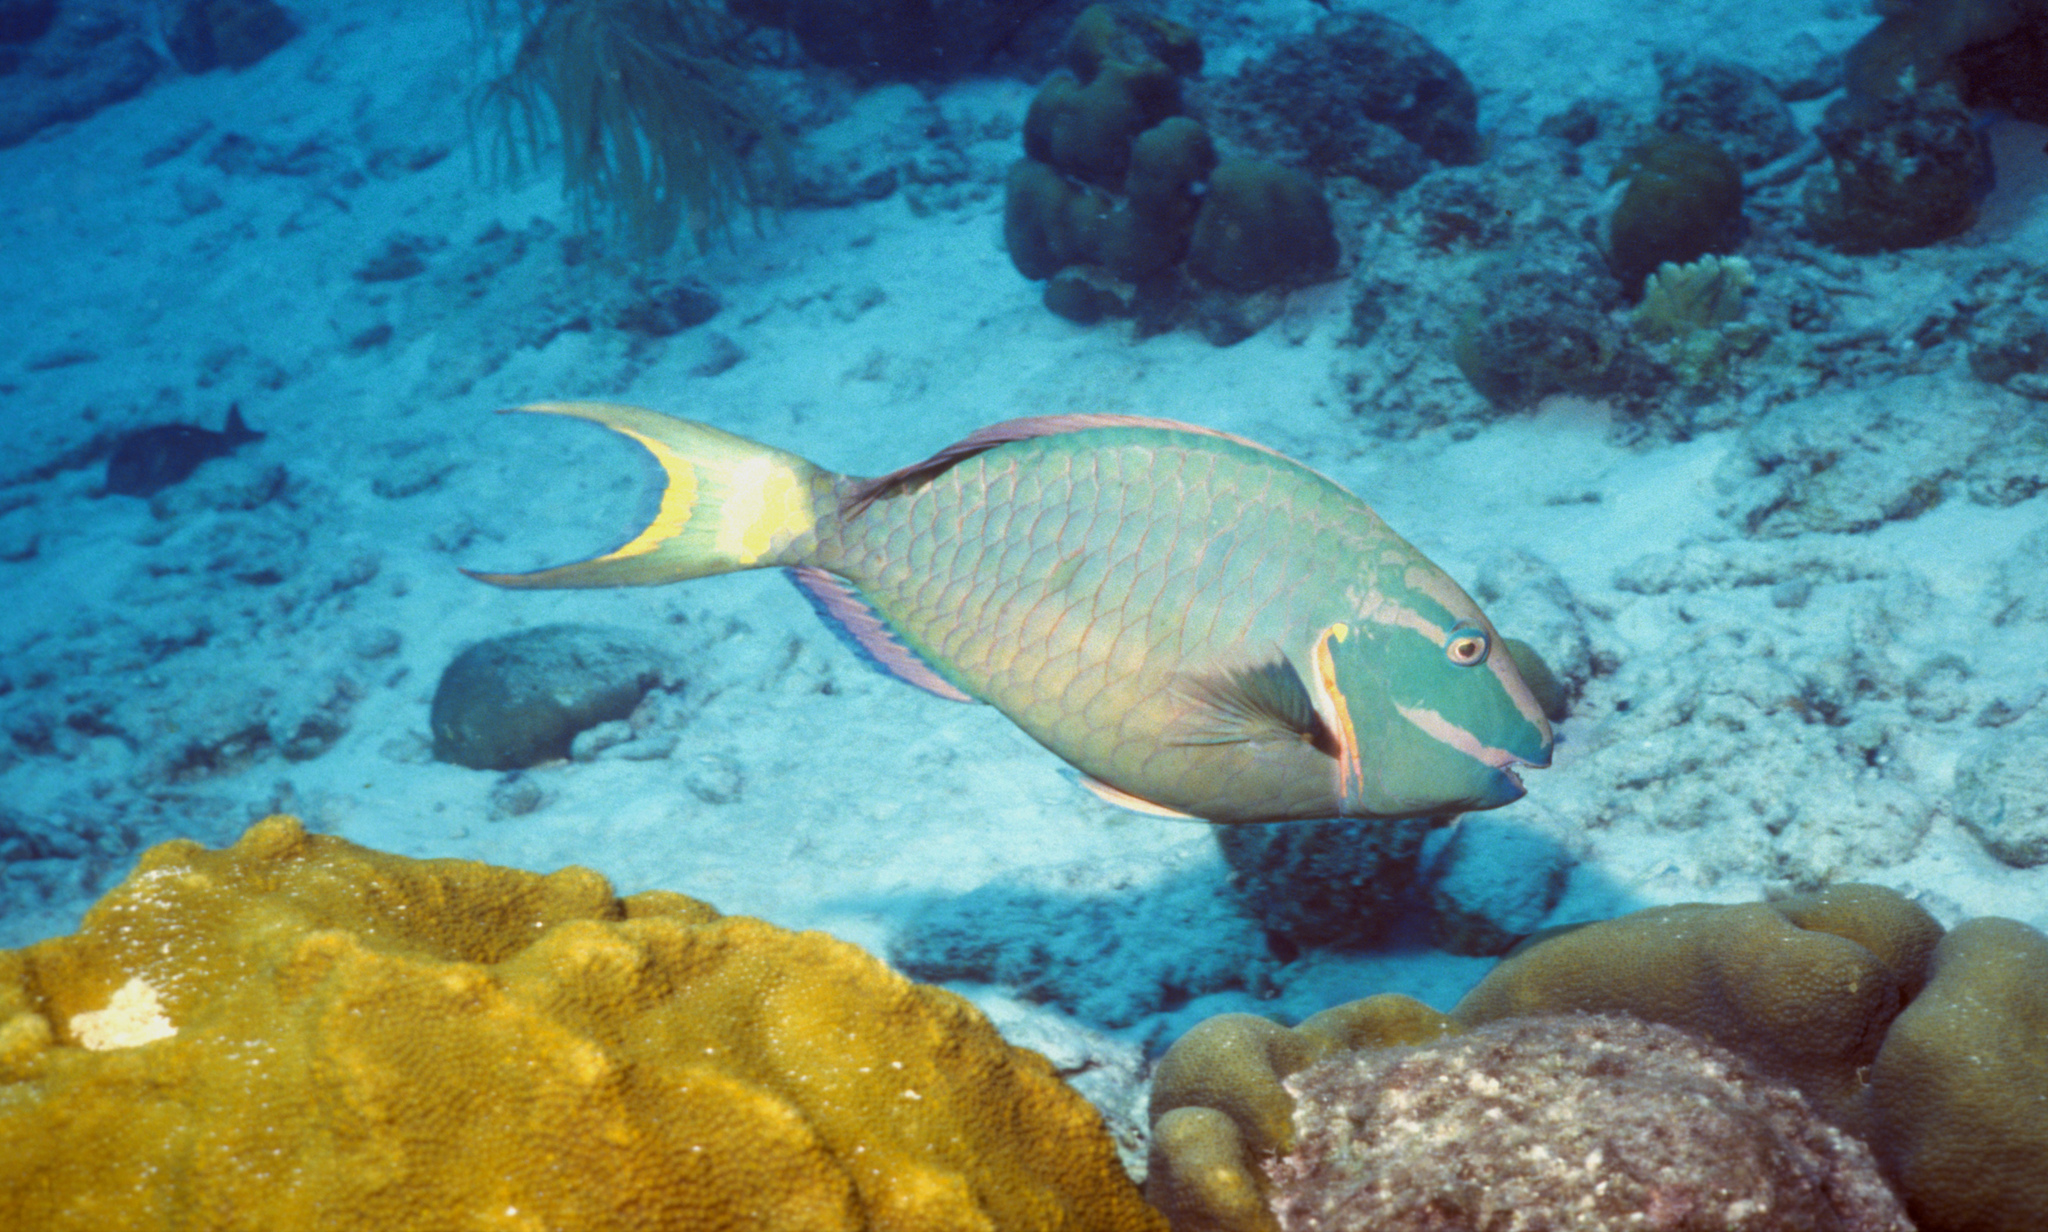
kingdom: Animalia
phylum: Chordata
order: Perciformes
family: Scaridae
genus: Sparisoma
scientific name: Sparisoma viride
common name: Stoplight parrotfish
